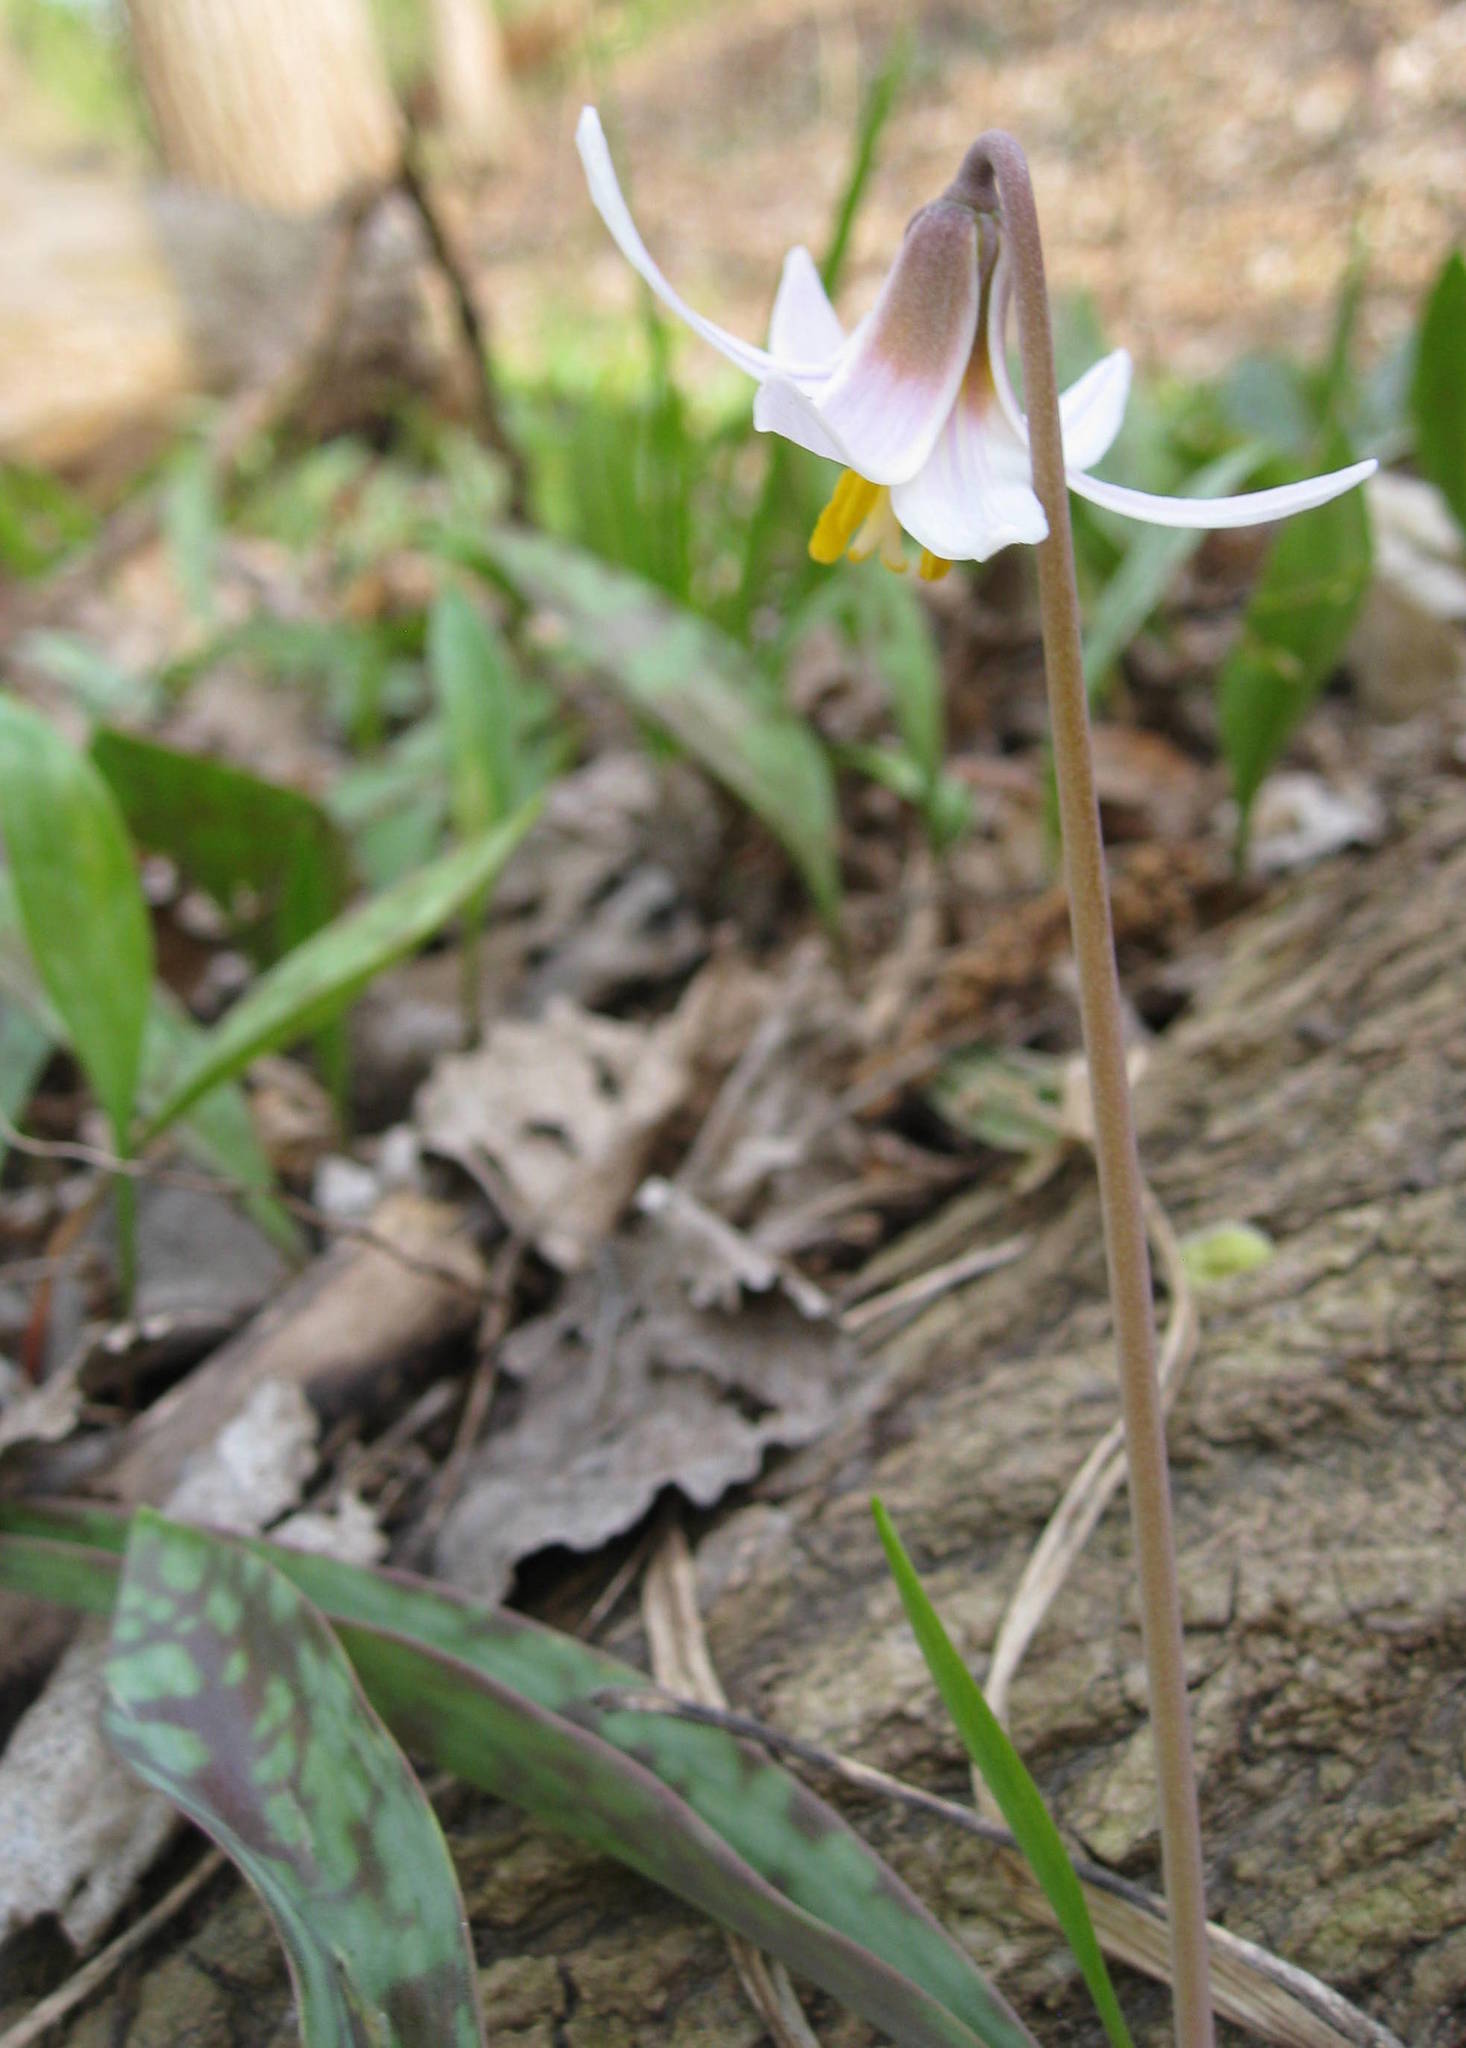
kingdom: Plantae
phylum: Tracheophyta
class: Liliopsida
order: Liliales
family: Liliaceae
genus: Erythronium
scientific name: Erythronium albidum
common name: White trout-lily
